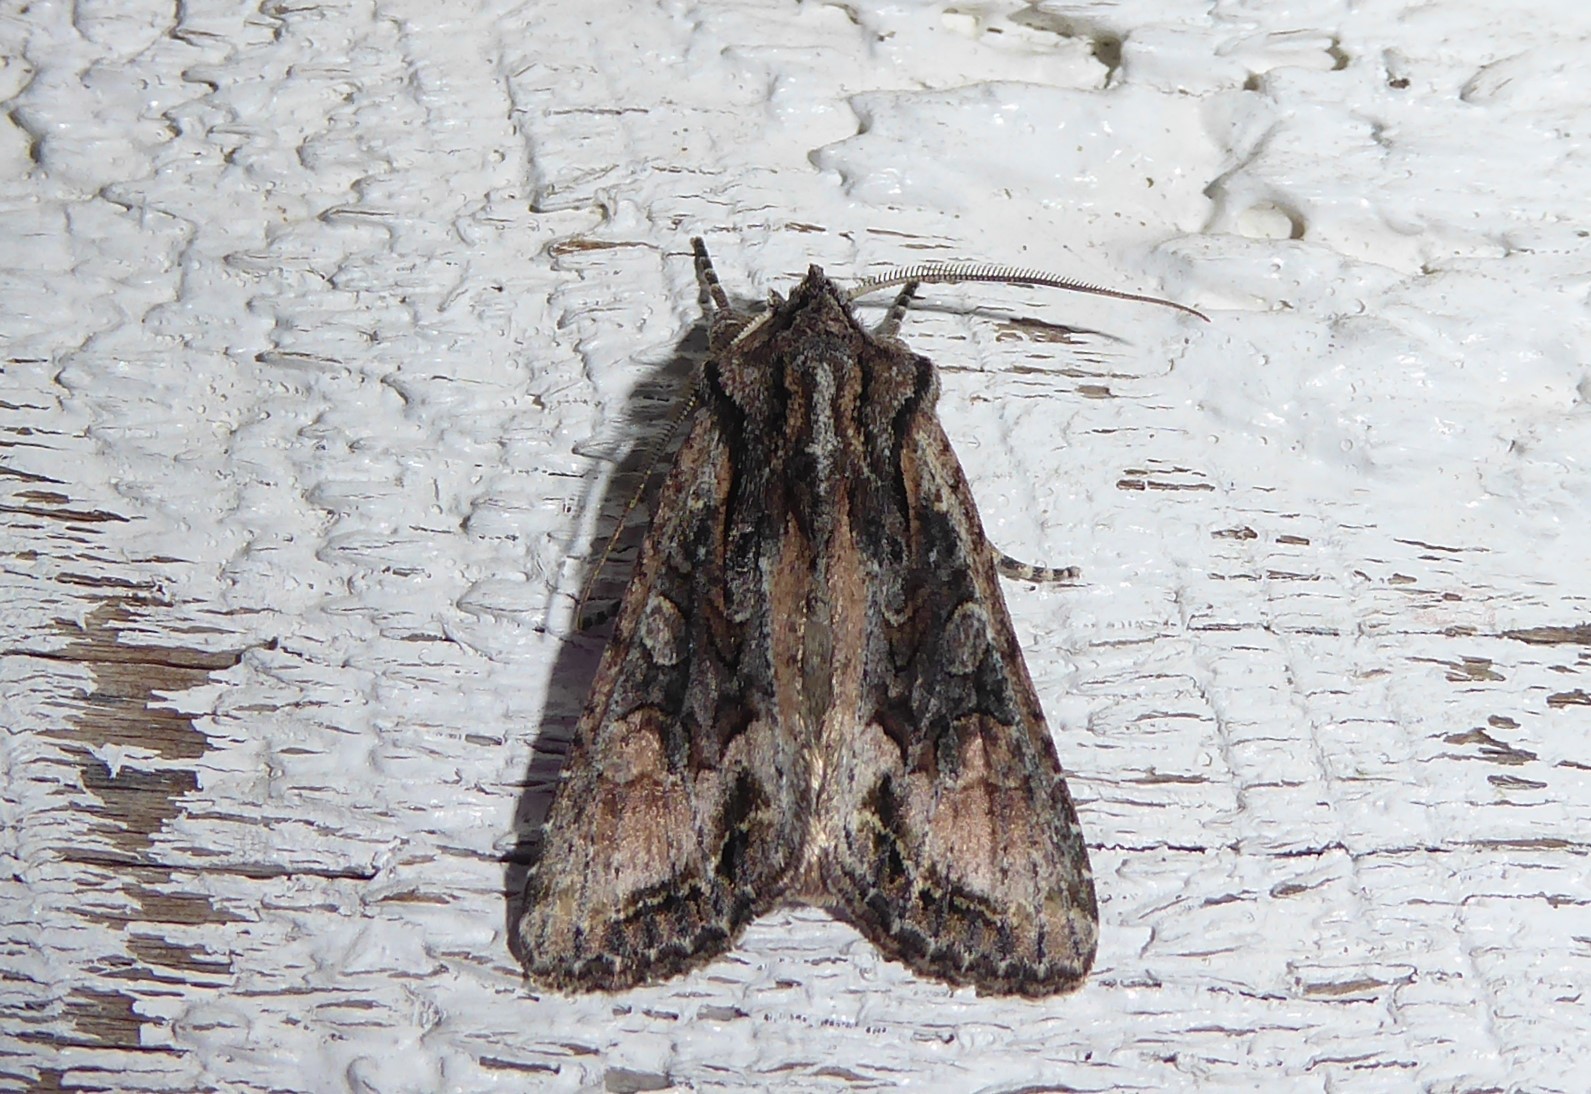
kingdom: Animalia
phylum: Arthropoda
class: Insecta
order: Lepidoptera
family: Noctuidae
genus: Ichneutica
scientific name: Ichneutica mutans
